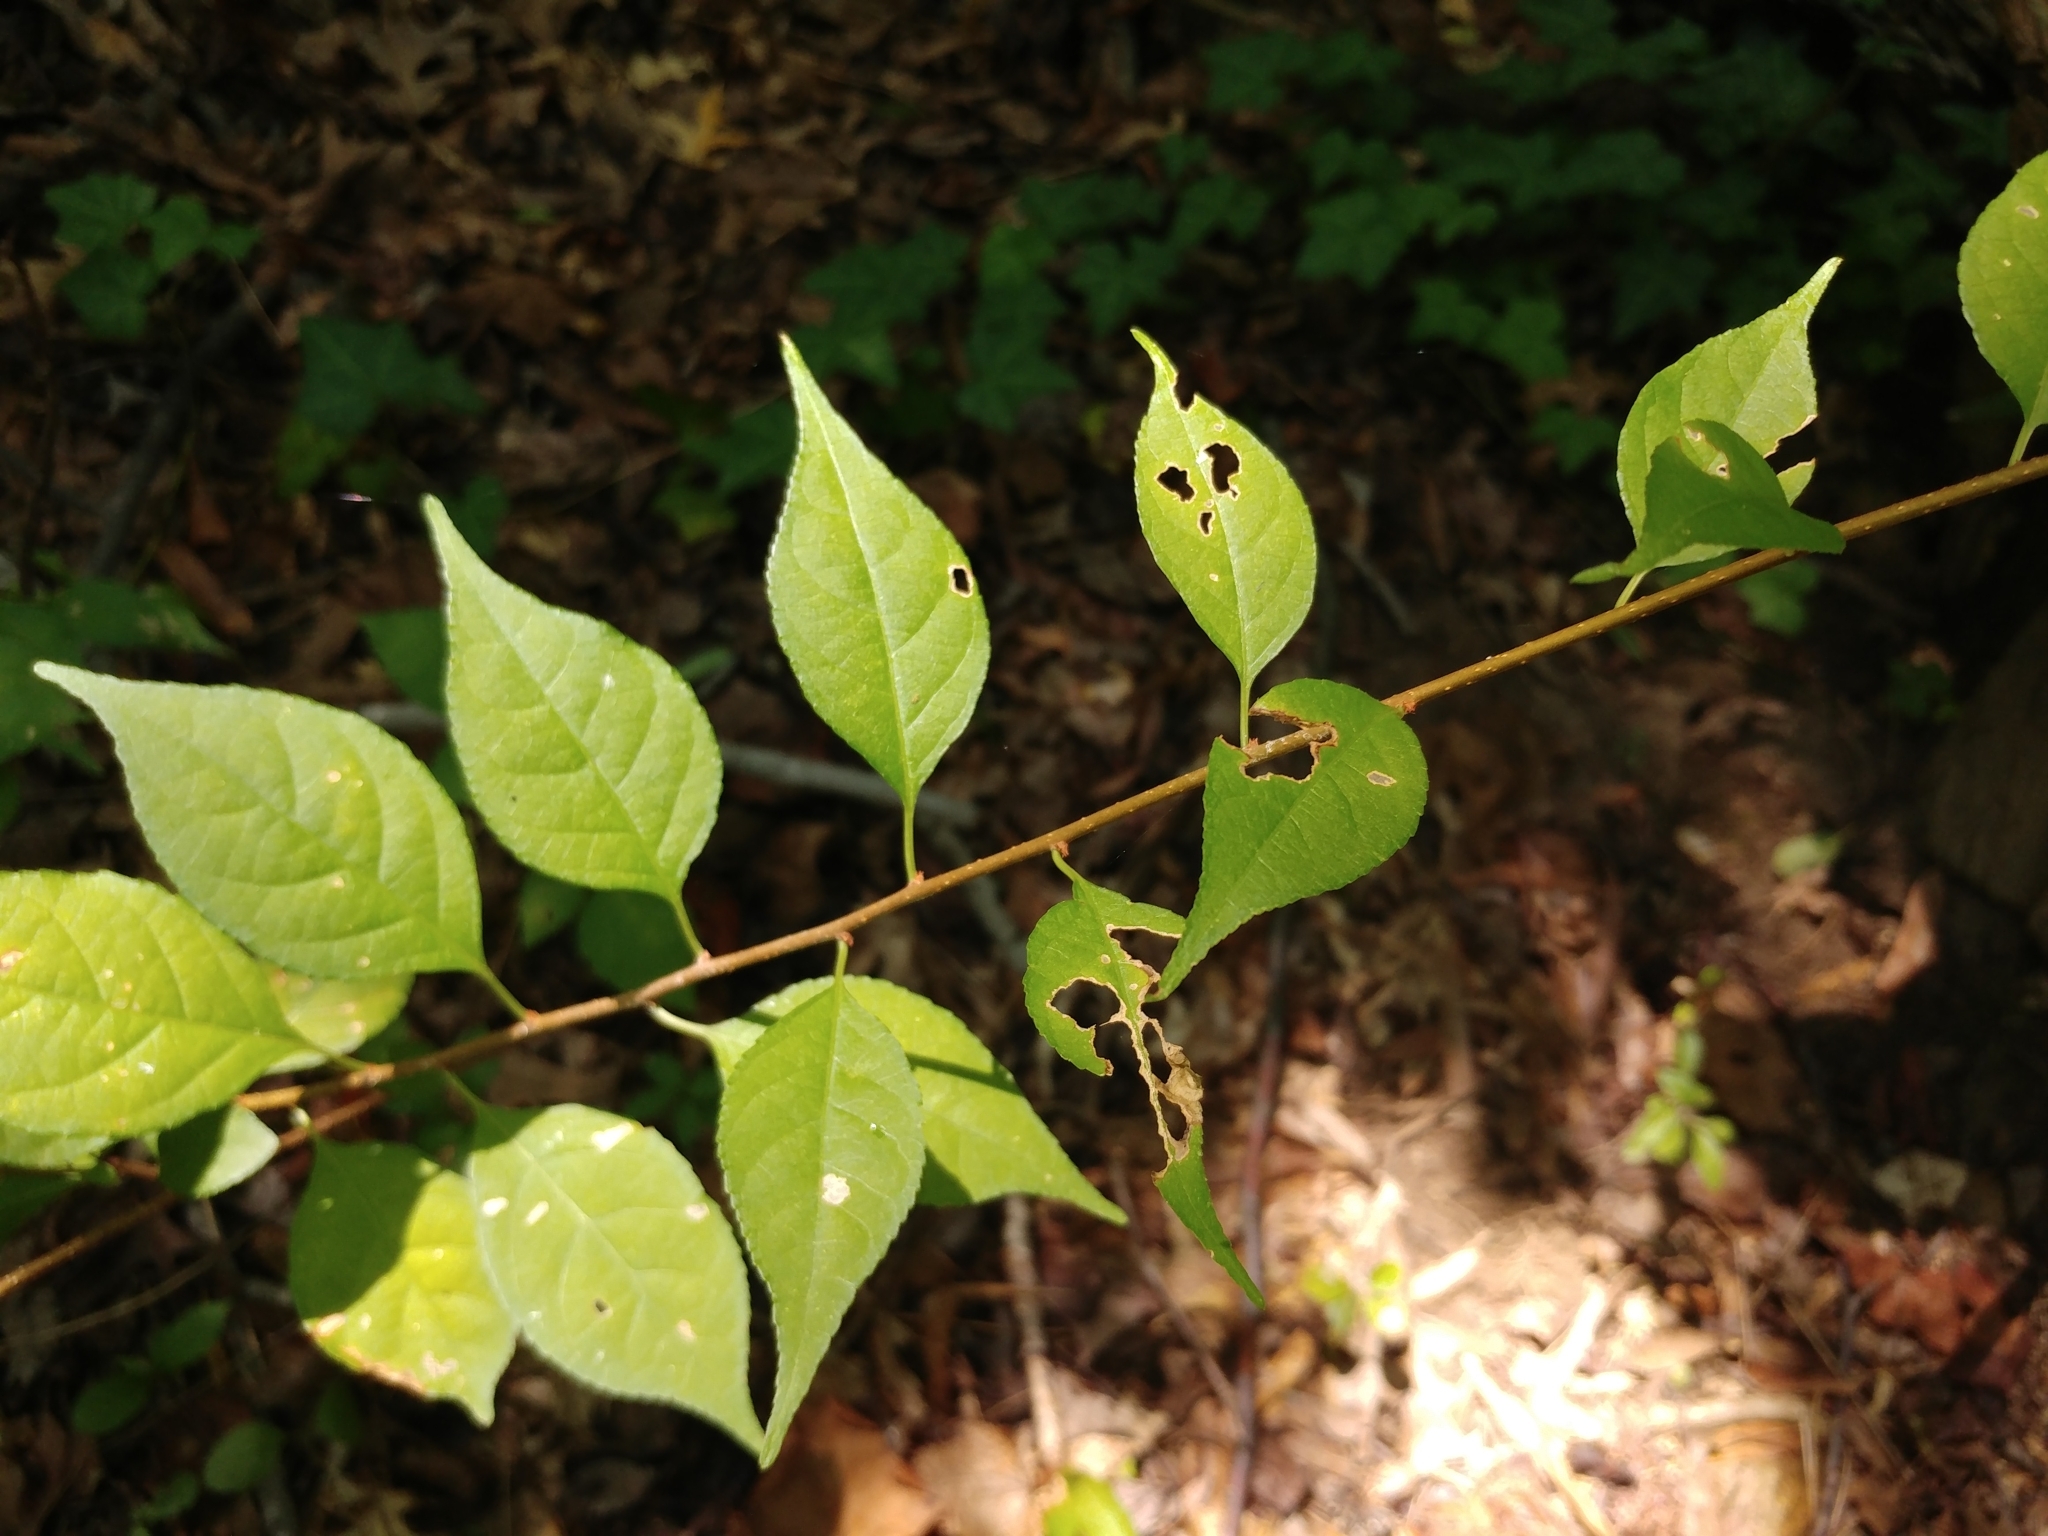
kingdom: Plantae
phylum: Tracheophyta
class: Magnoliopsida
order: Celastrales
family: Celastraceae
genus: Celastrus
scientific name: Celastrus orbiculatus
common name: Oriental bittersweet
